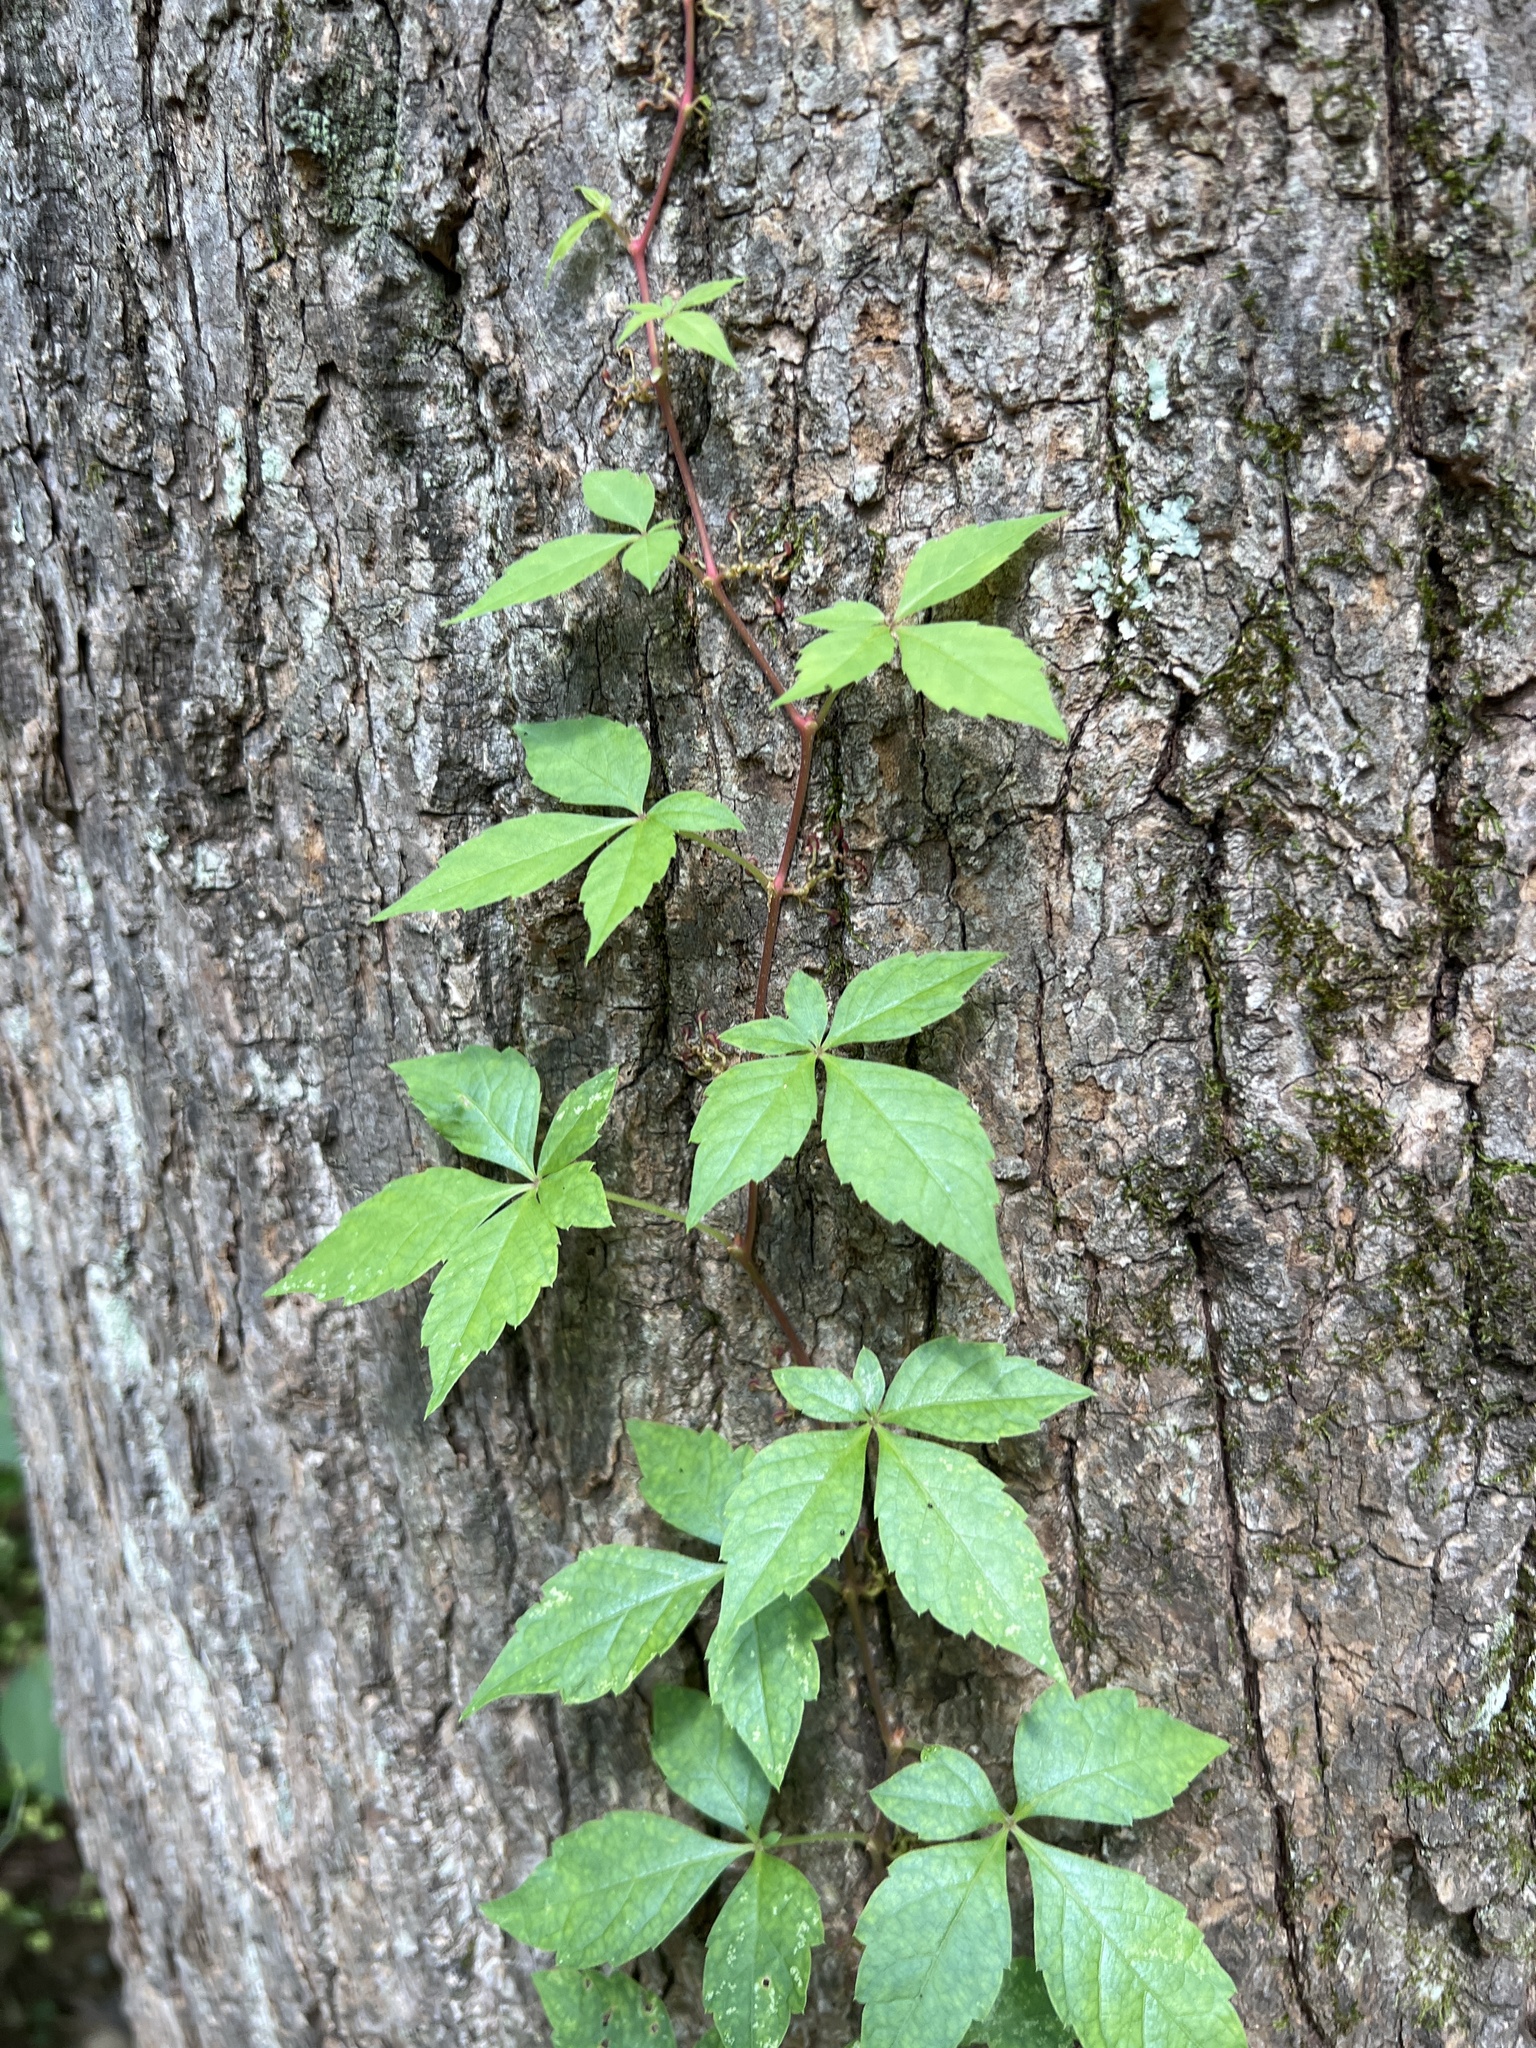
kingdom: Plantae
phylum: Tracheophyta
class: Magnoliopsida
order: Vitales
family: Vitaceae
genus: Parthenocissus
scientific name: Parthenocissus quinquefolia
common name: Virginia-creeper
